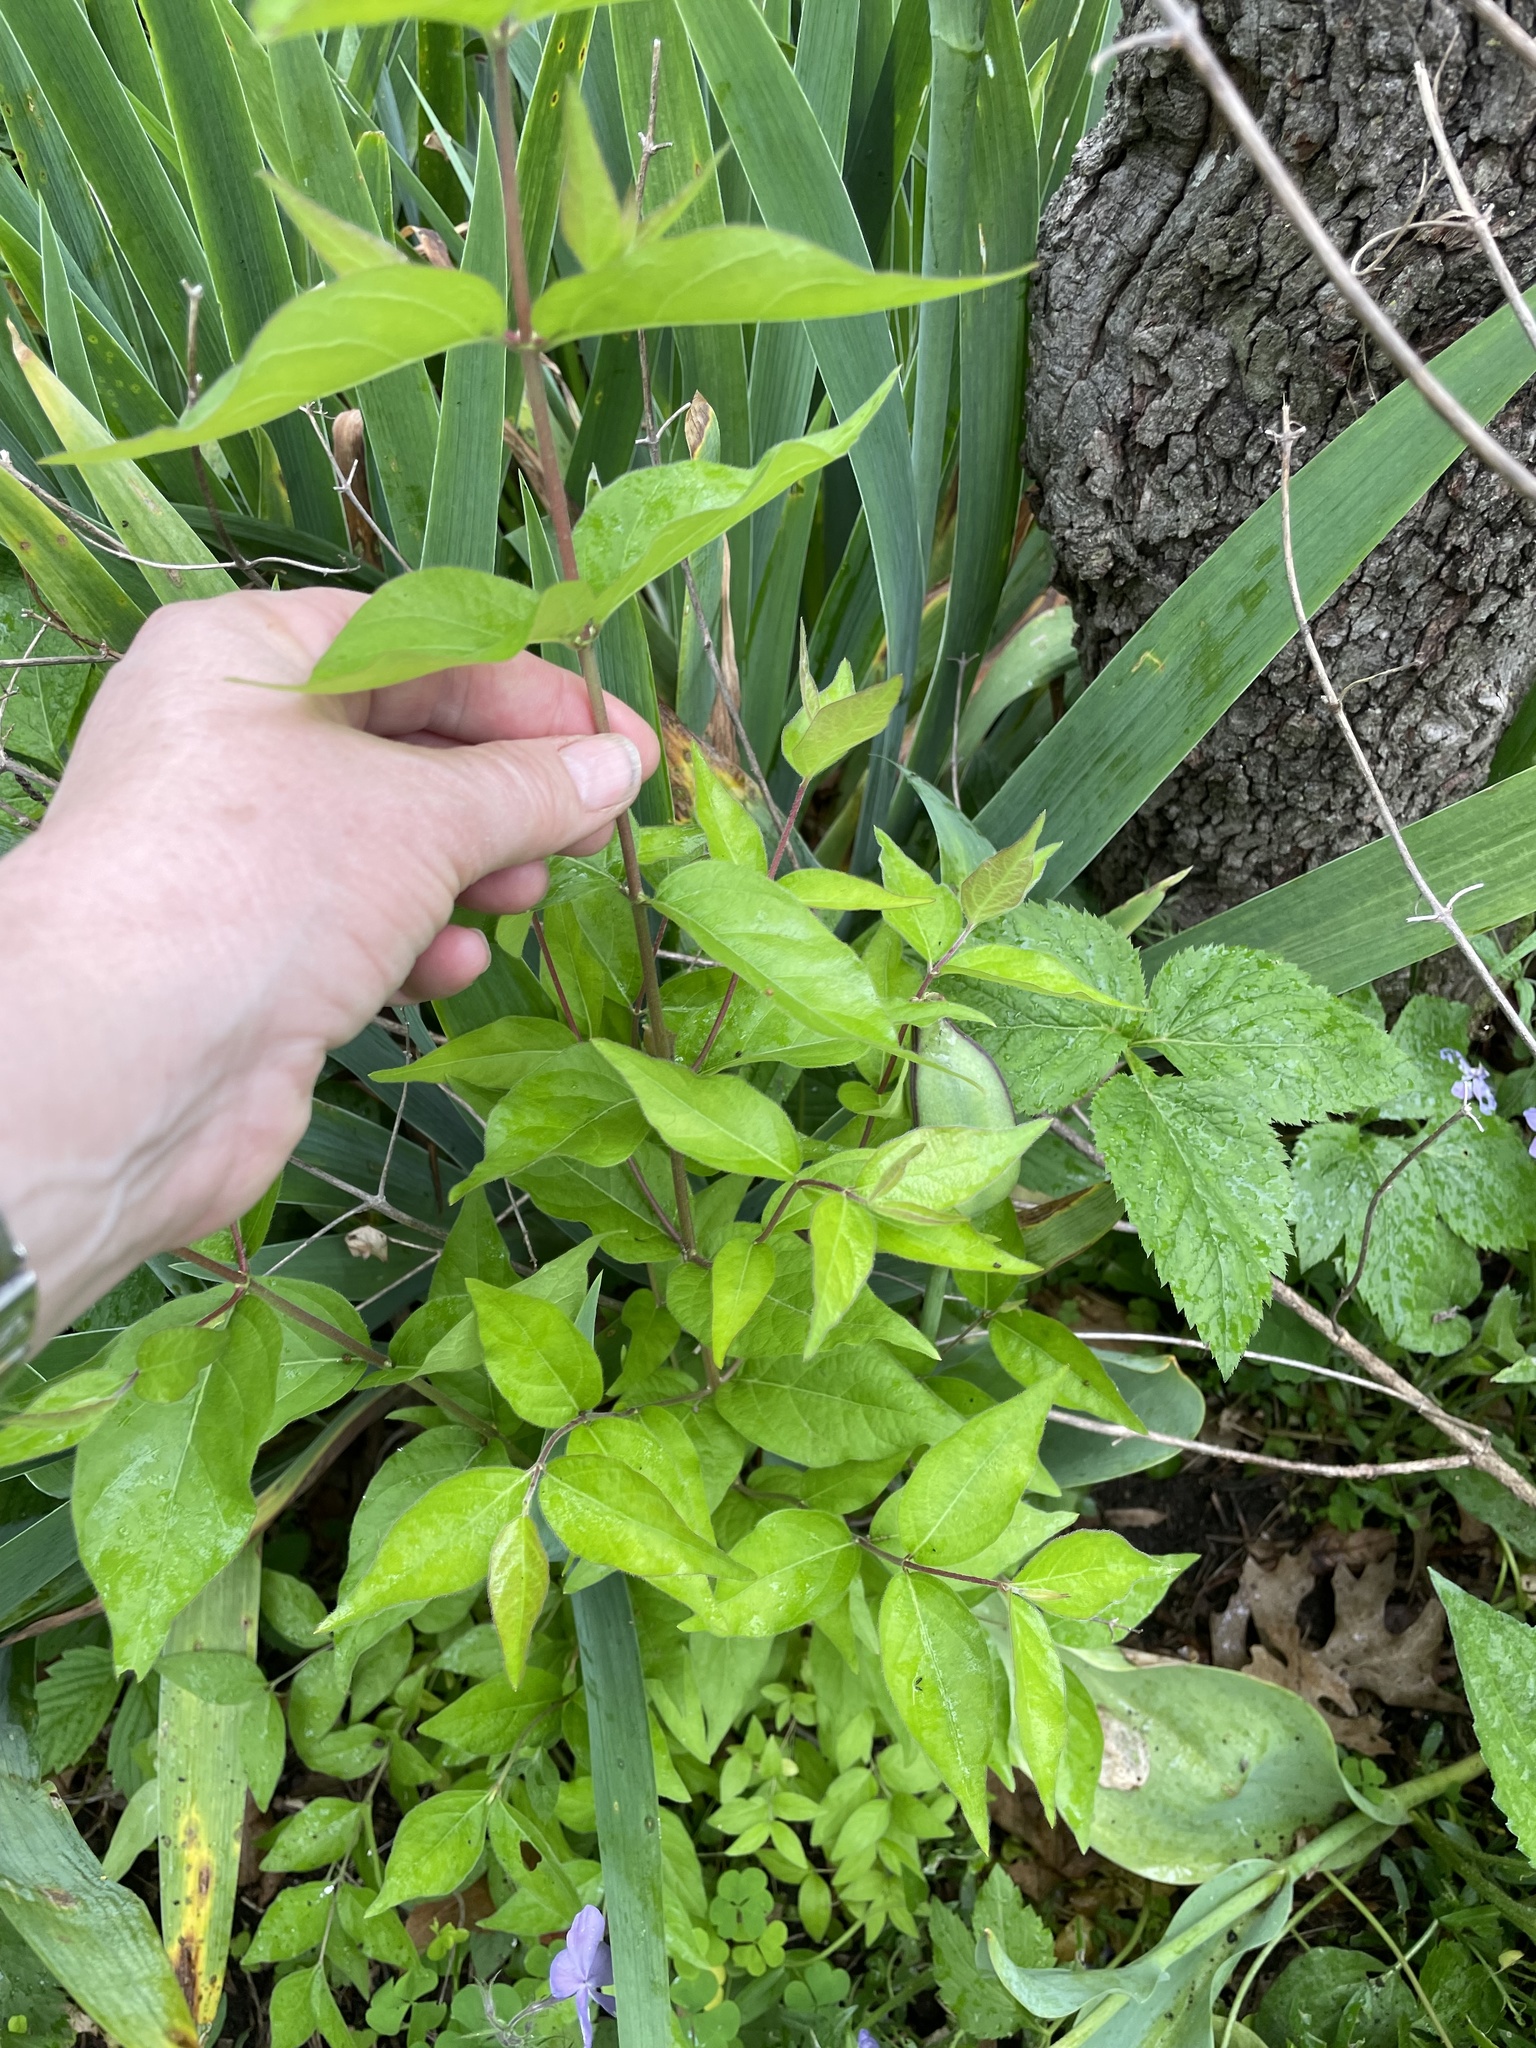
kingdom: Plantae
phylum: Tracheophyta
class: Magnoliopsida
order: Dipsacales
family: Caprifoliaceae
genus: Lonicera
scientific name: Lonicera maackii
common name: Amur honeysuckle
